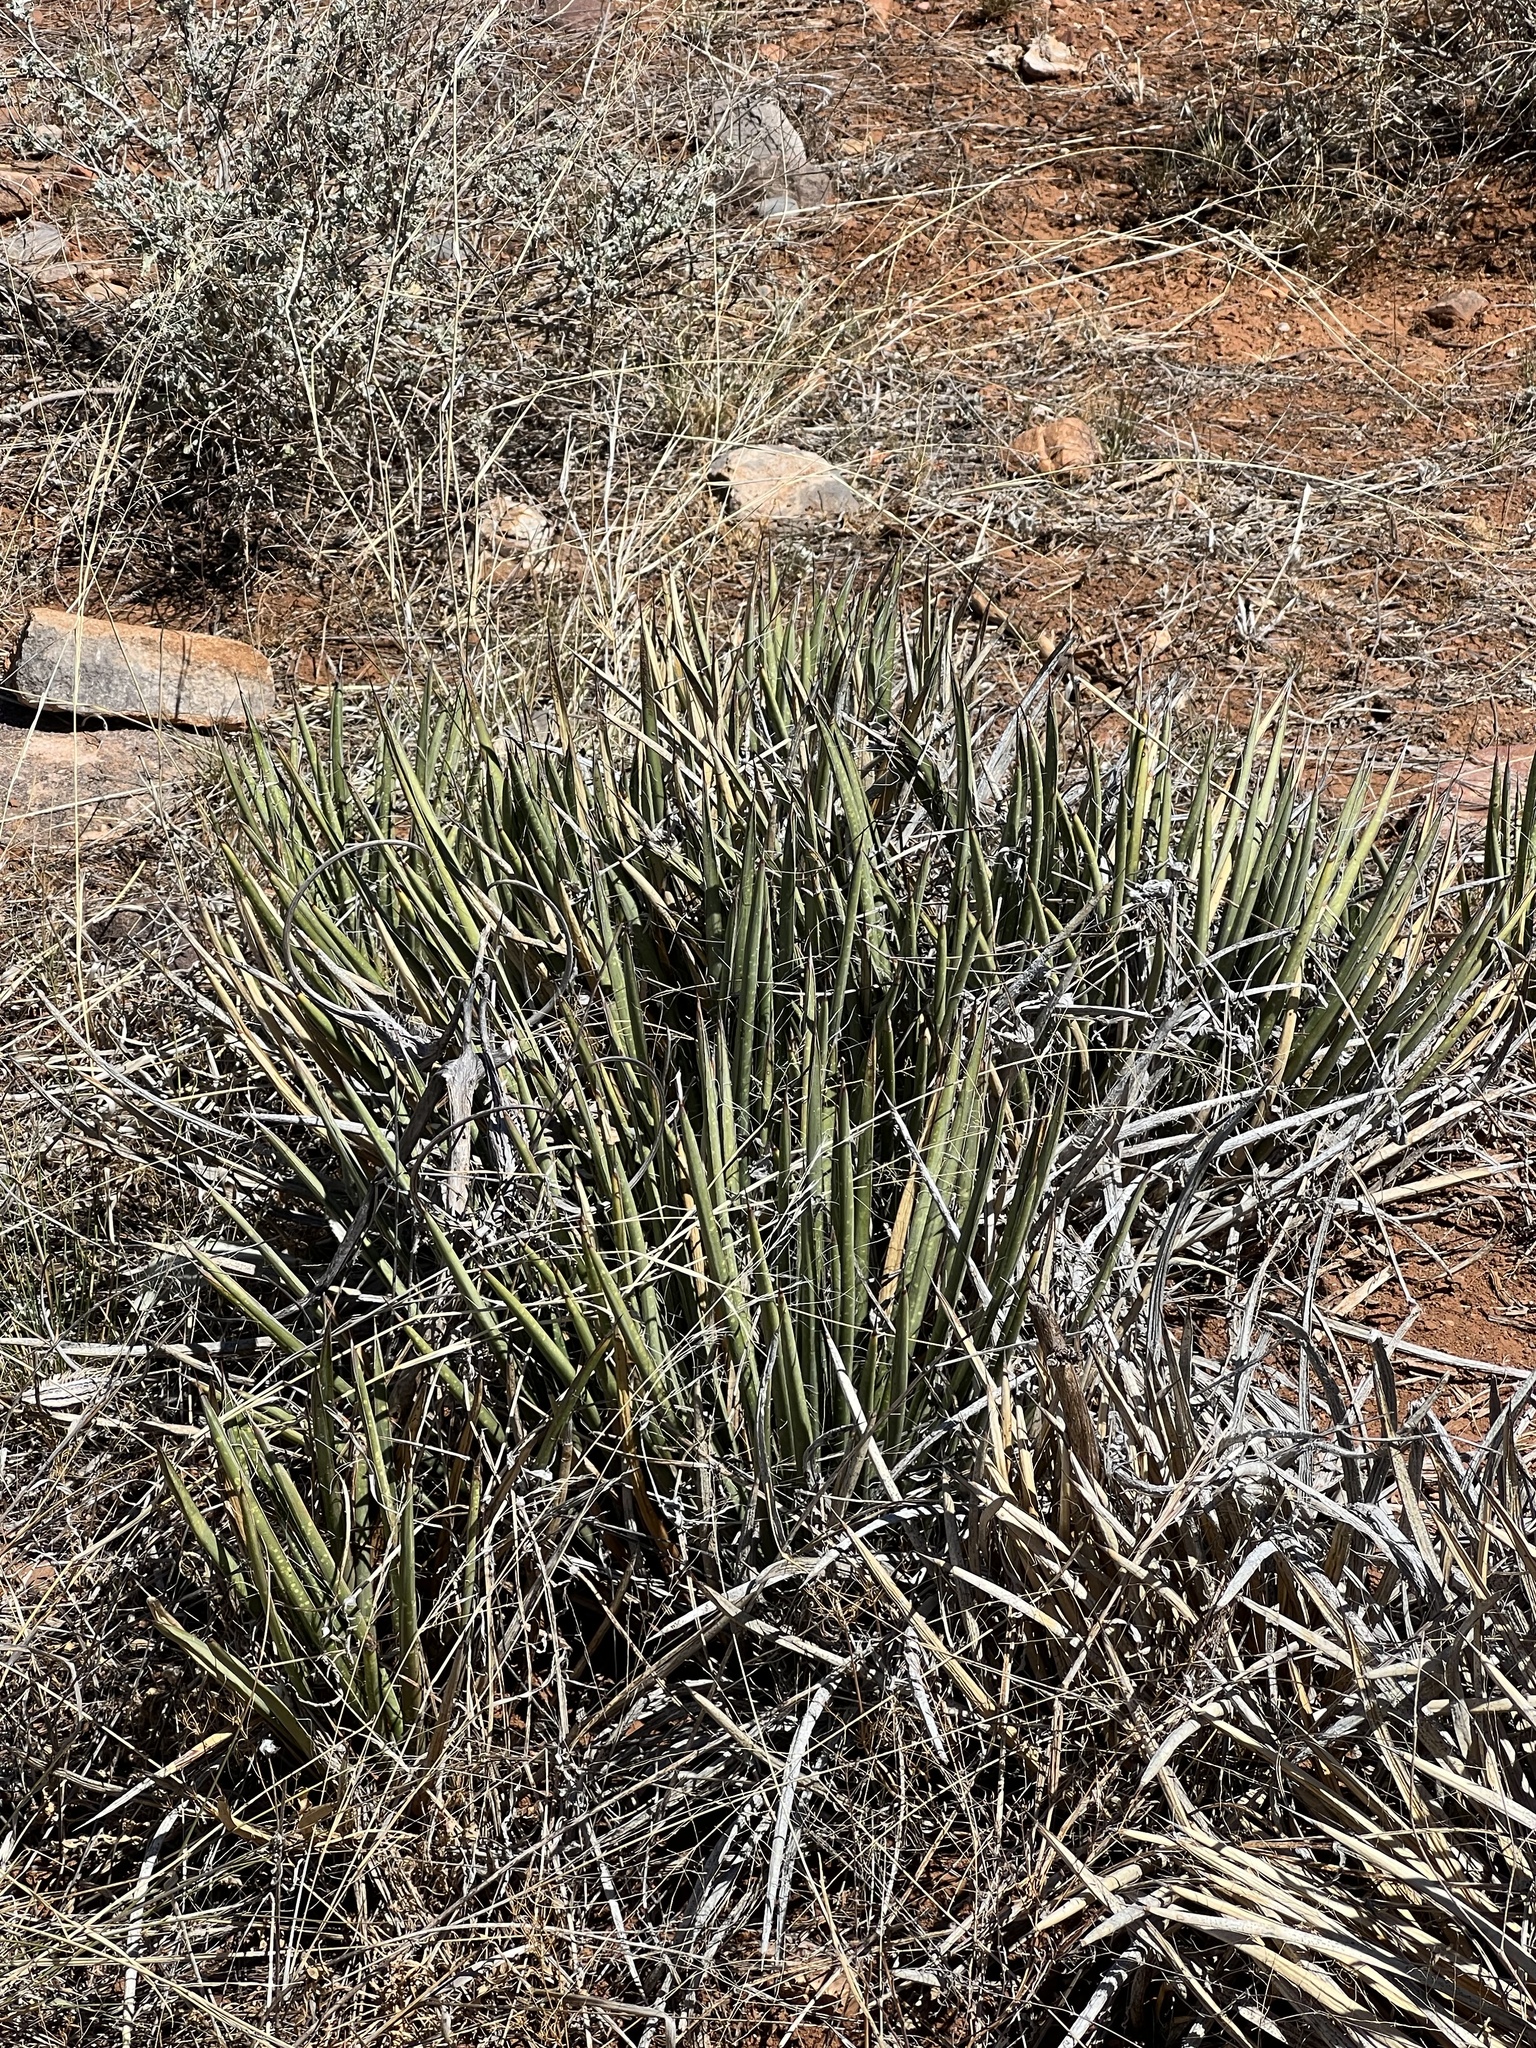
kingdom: Plantae
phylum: Tracheophyta
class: Liliopsida
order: Asparagales
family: Asparagaceae
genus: Agave
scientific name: Agave schottii
